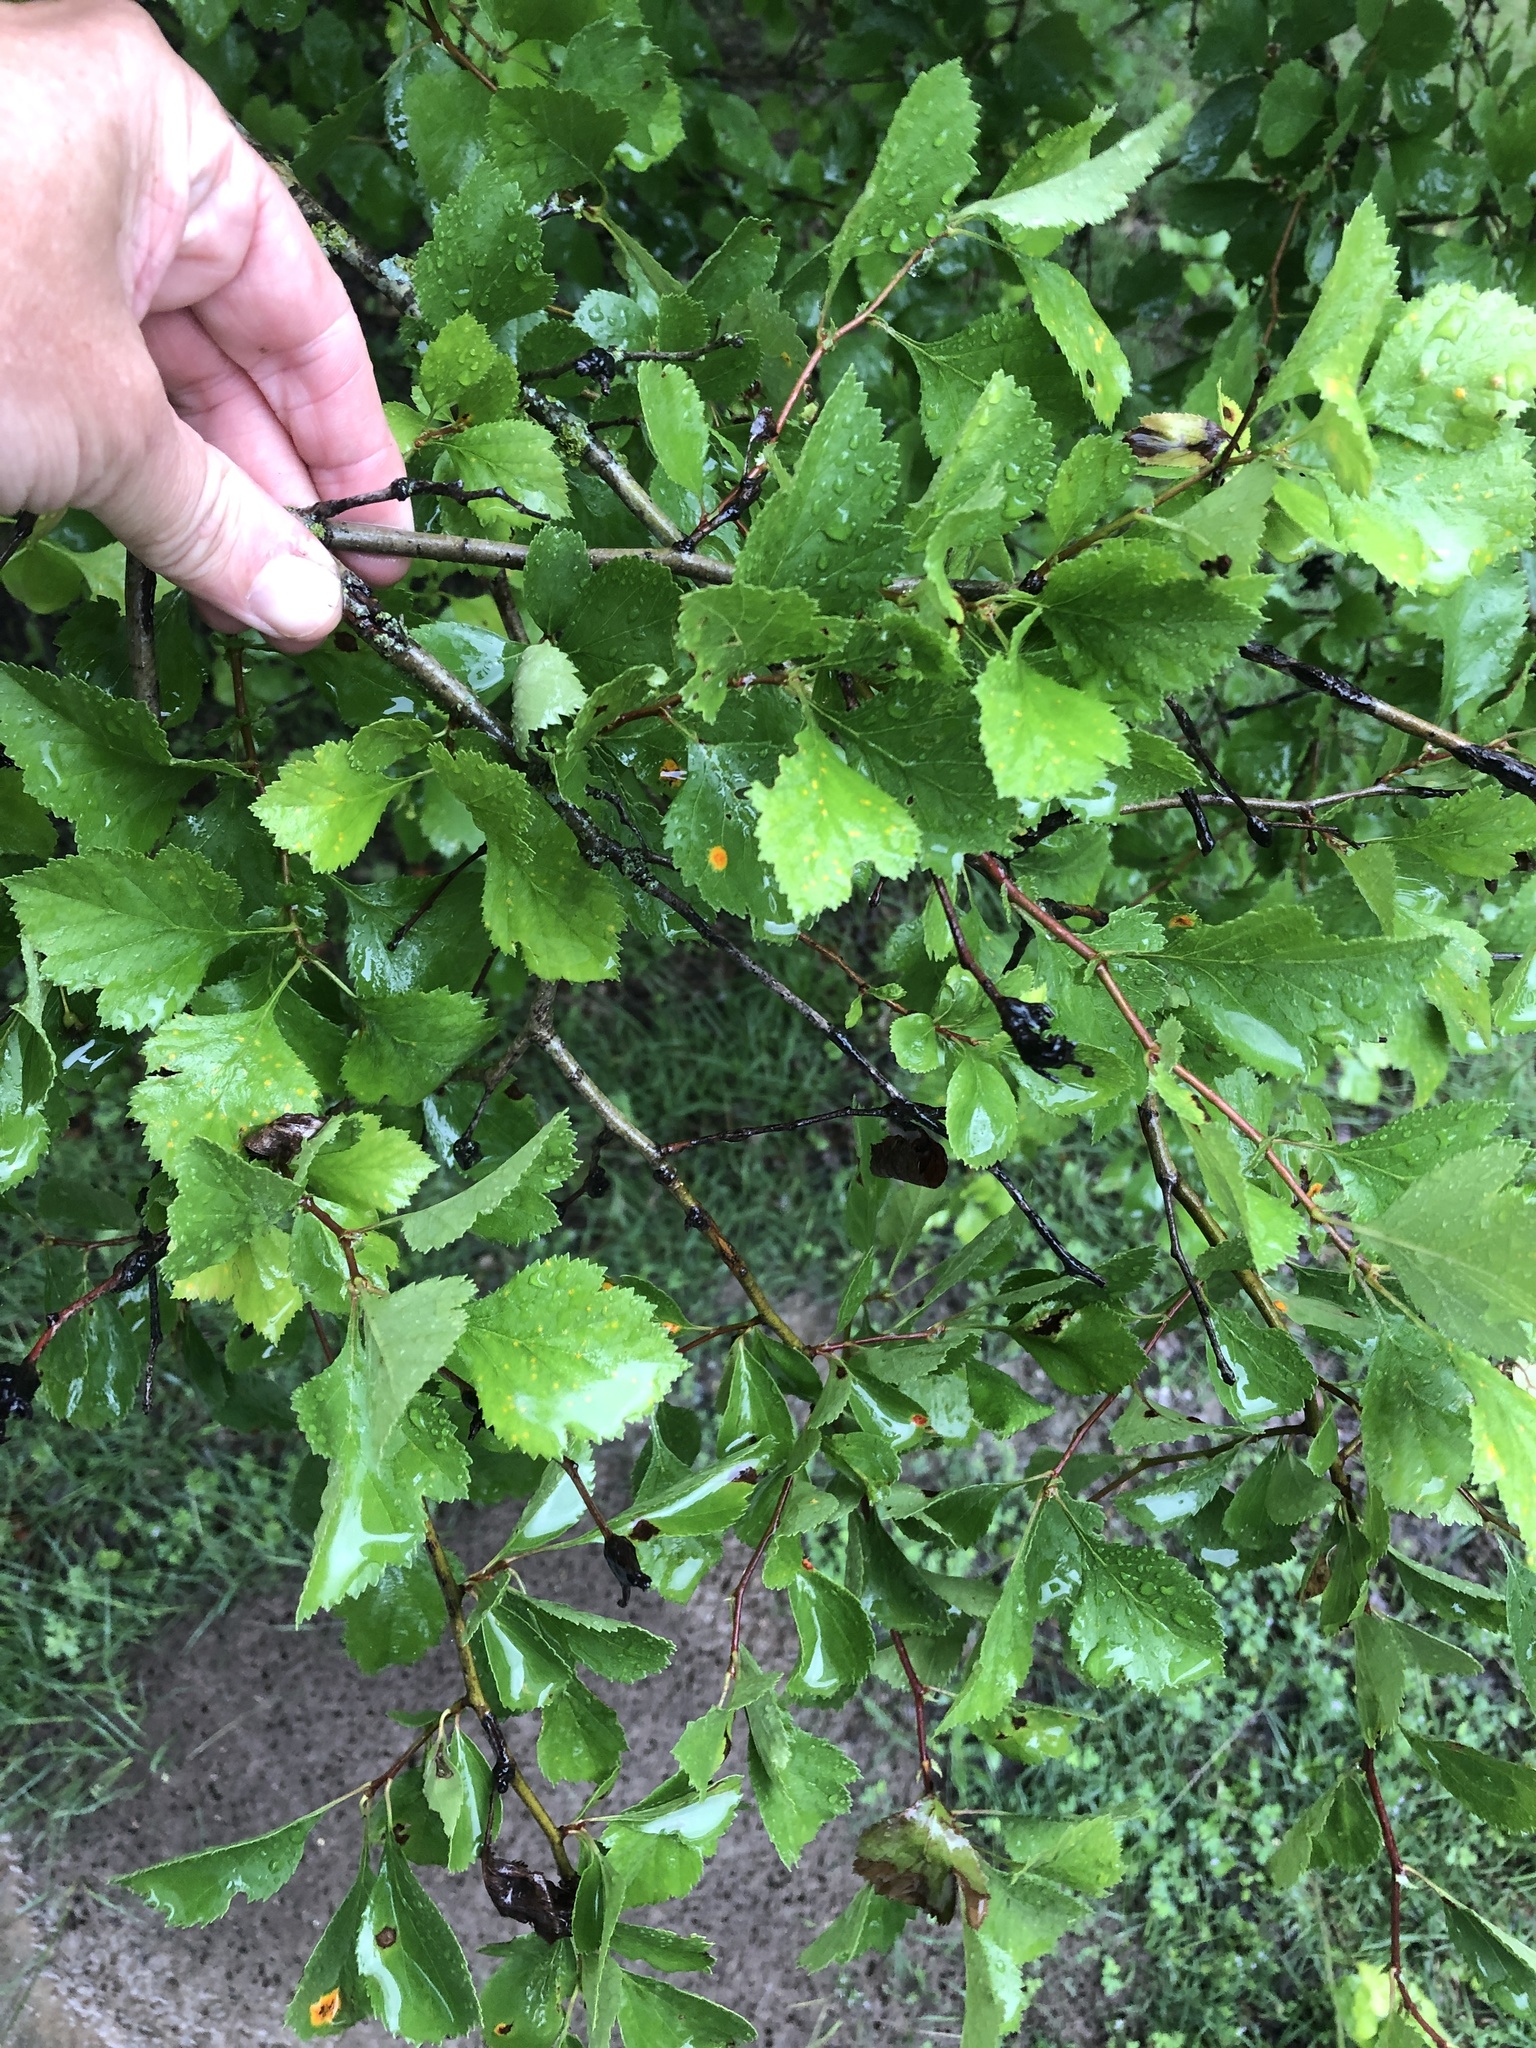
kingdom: Plantae
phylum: Tracheophyta
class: Magnoliopsida
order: Rosales
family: Rosaceae
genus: Crataegus
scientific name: Crataegus viridis
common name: Southernthorn
